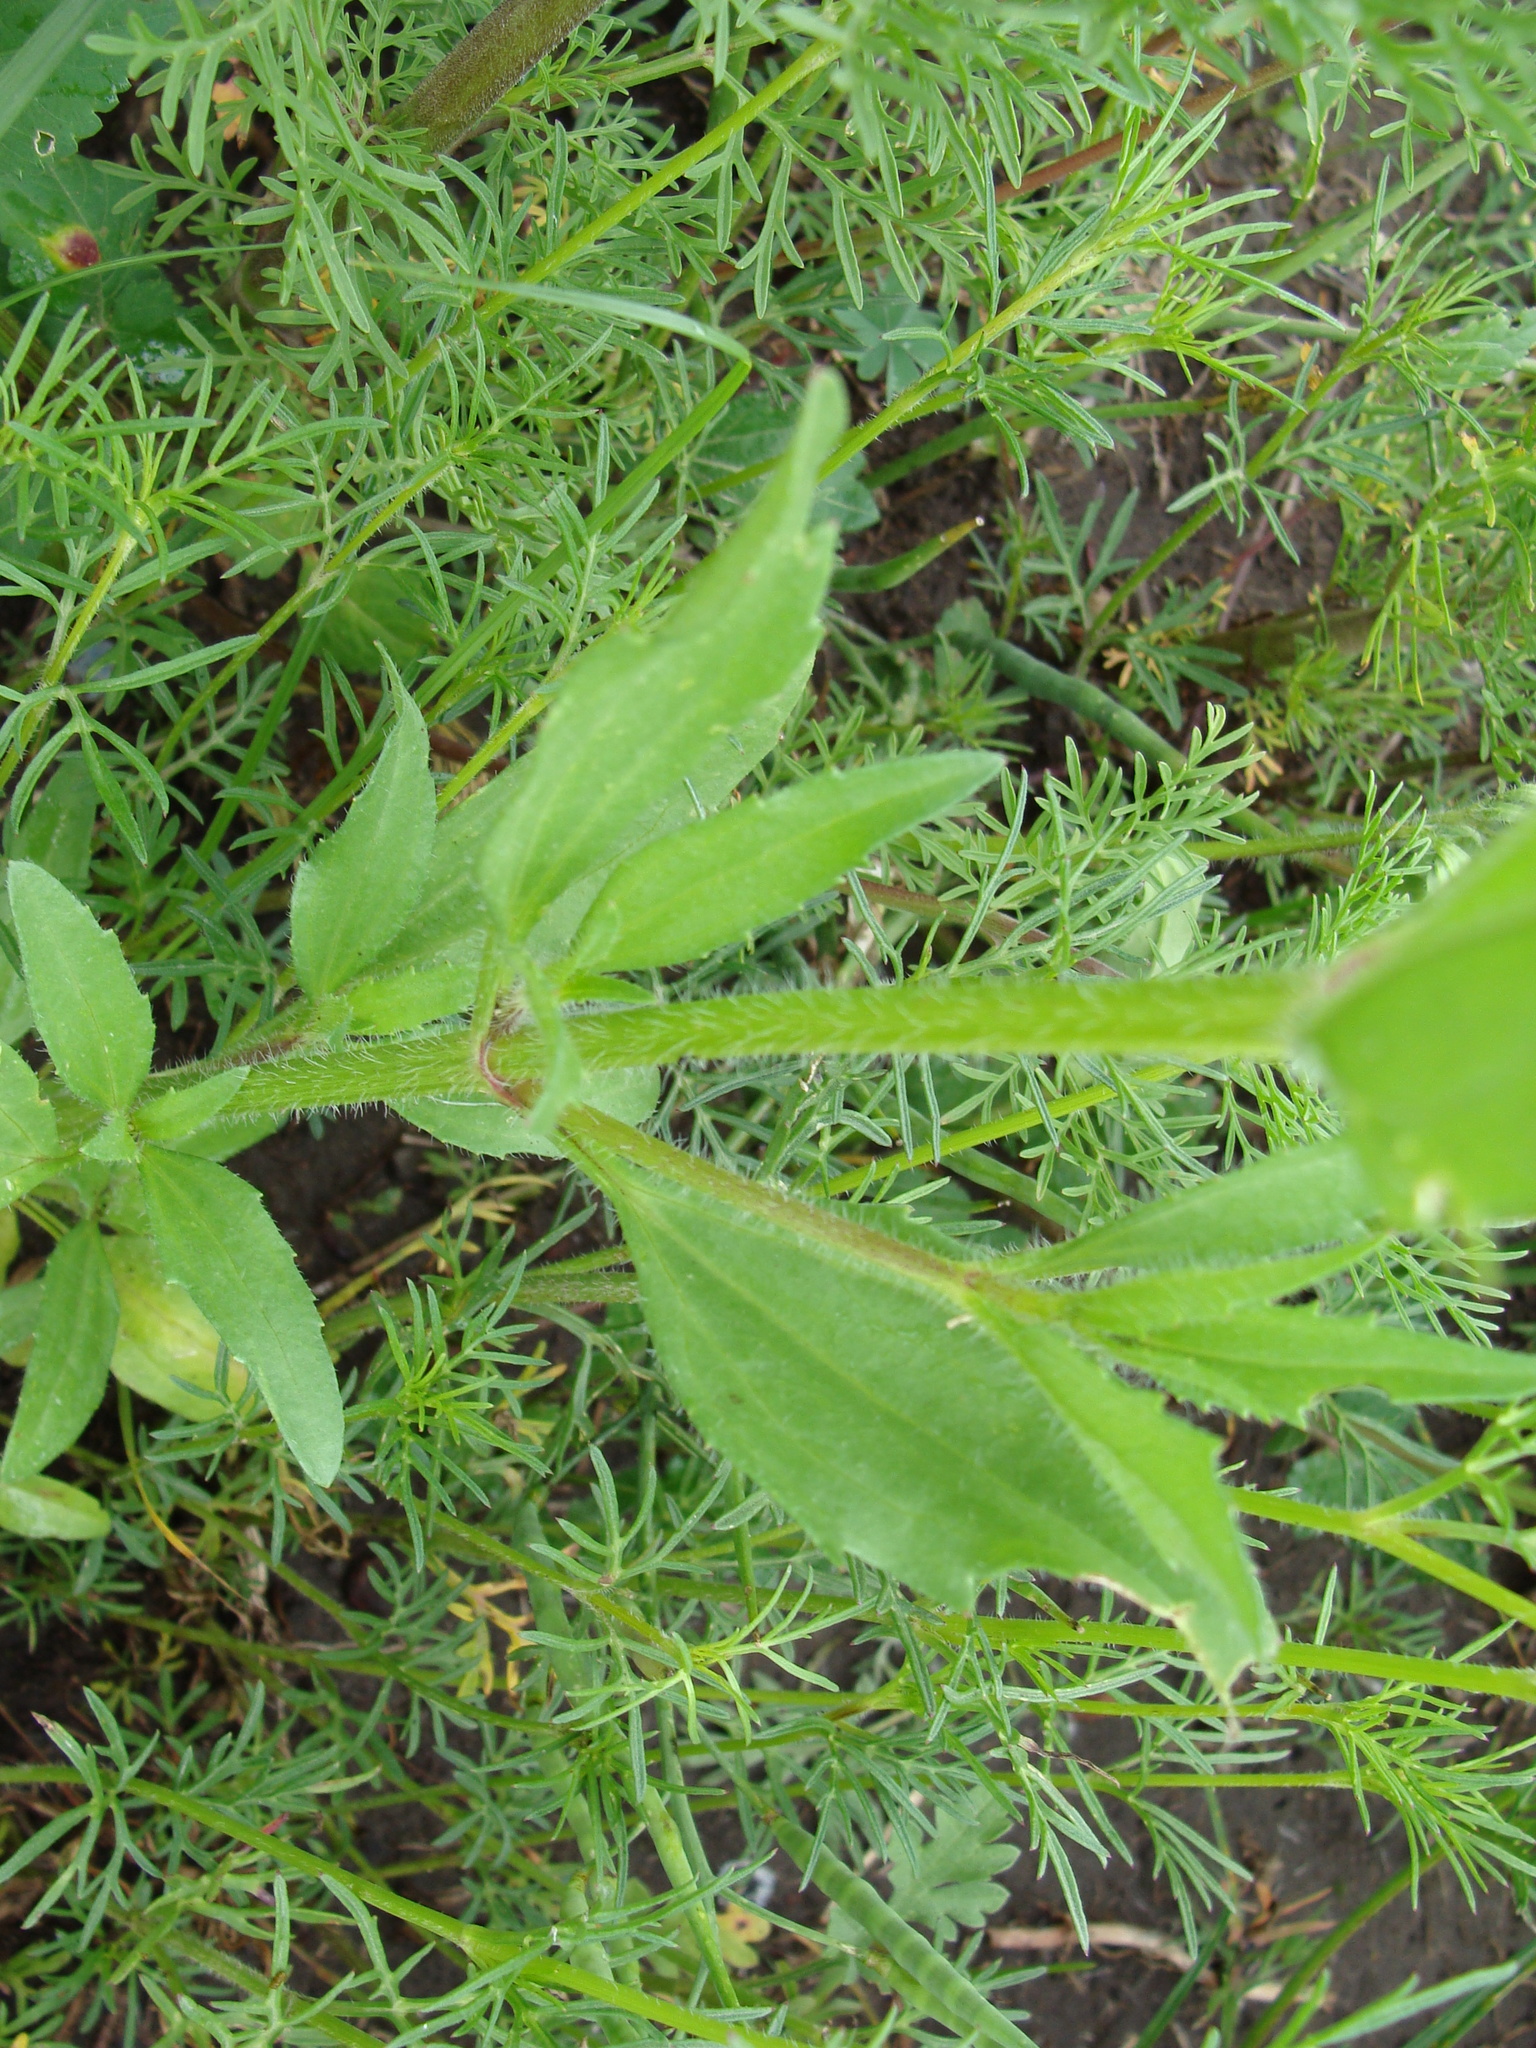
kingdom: Plantae
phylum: Tracheophyta
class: Magnoliopsida
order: Asterales
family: Asteraceae
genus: Tridax
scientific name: Tridax trilobata
